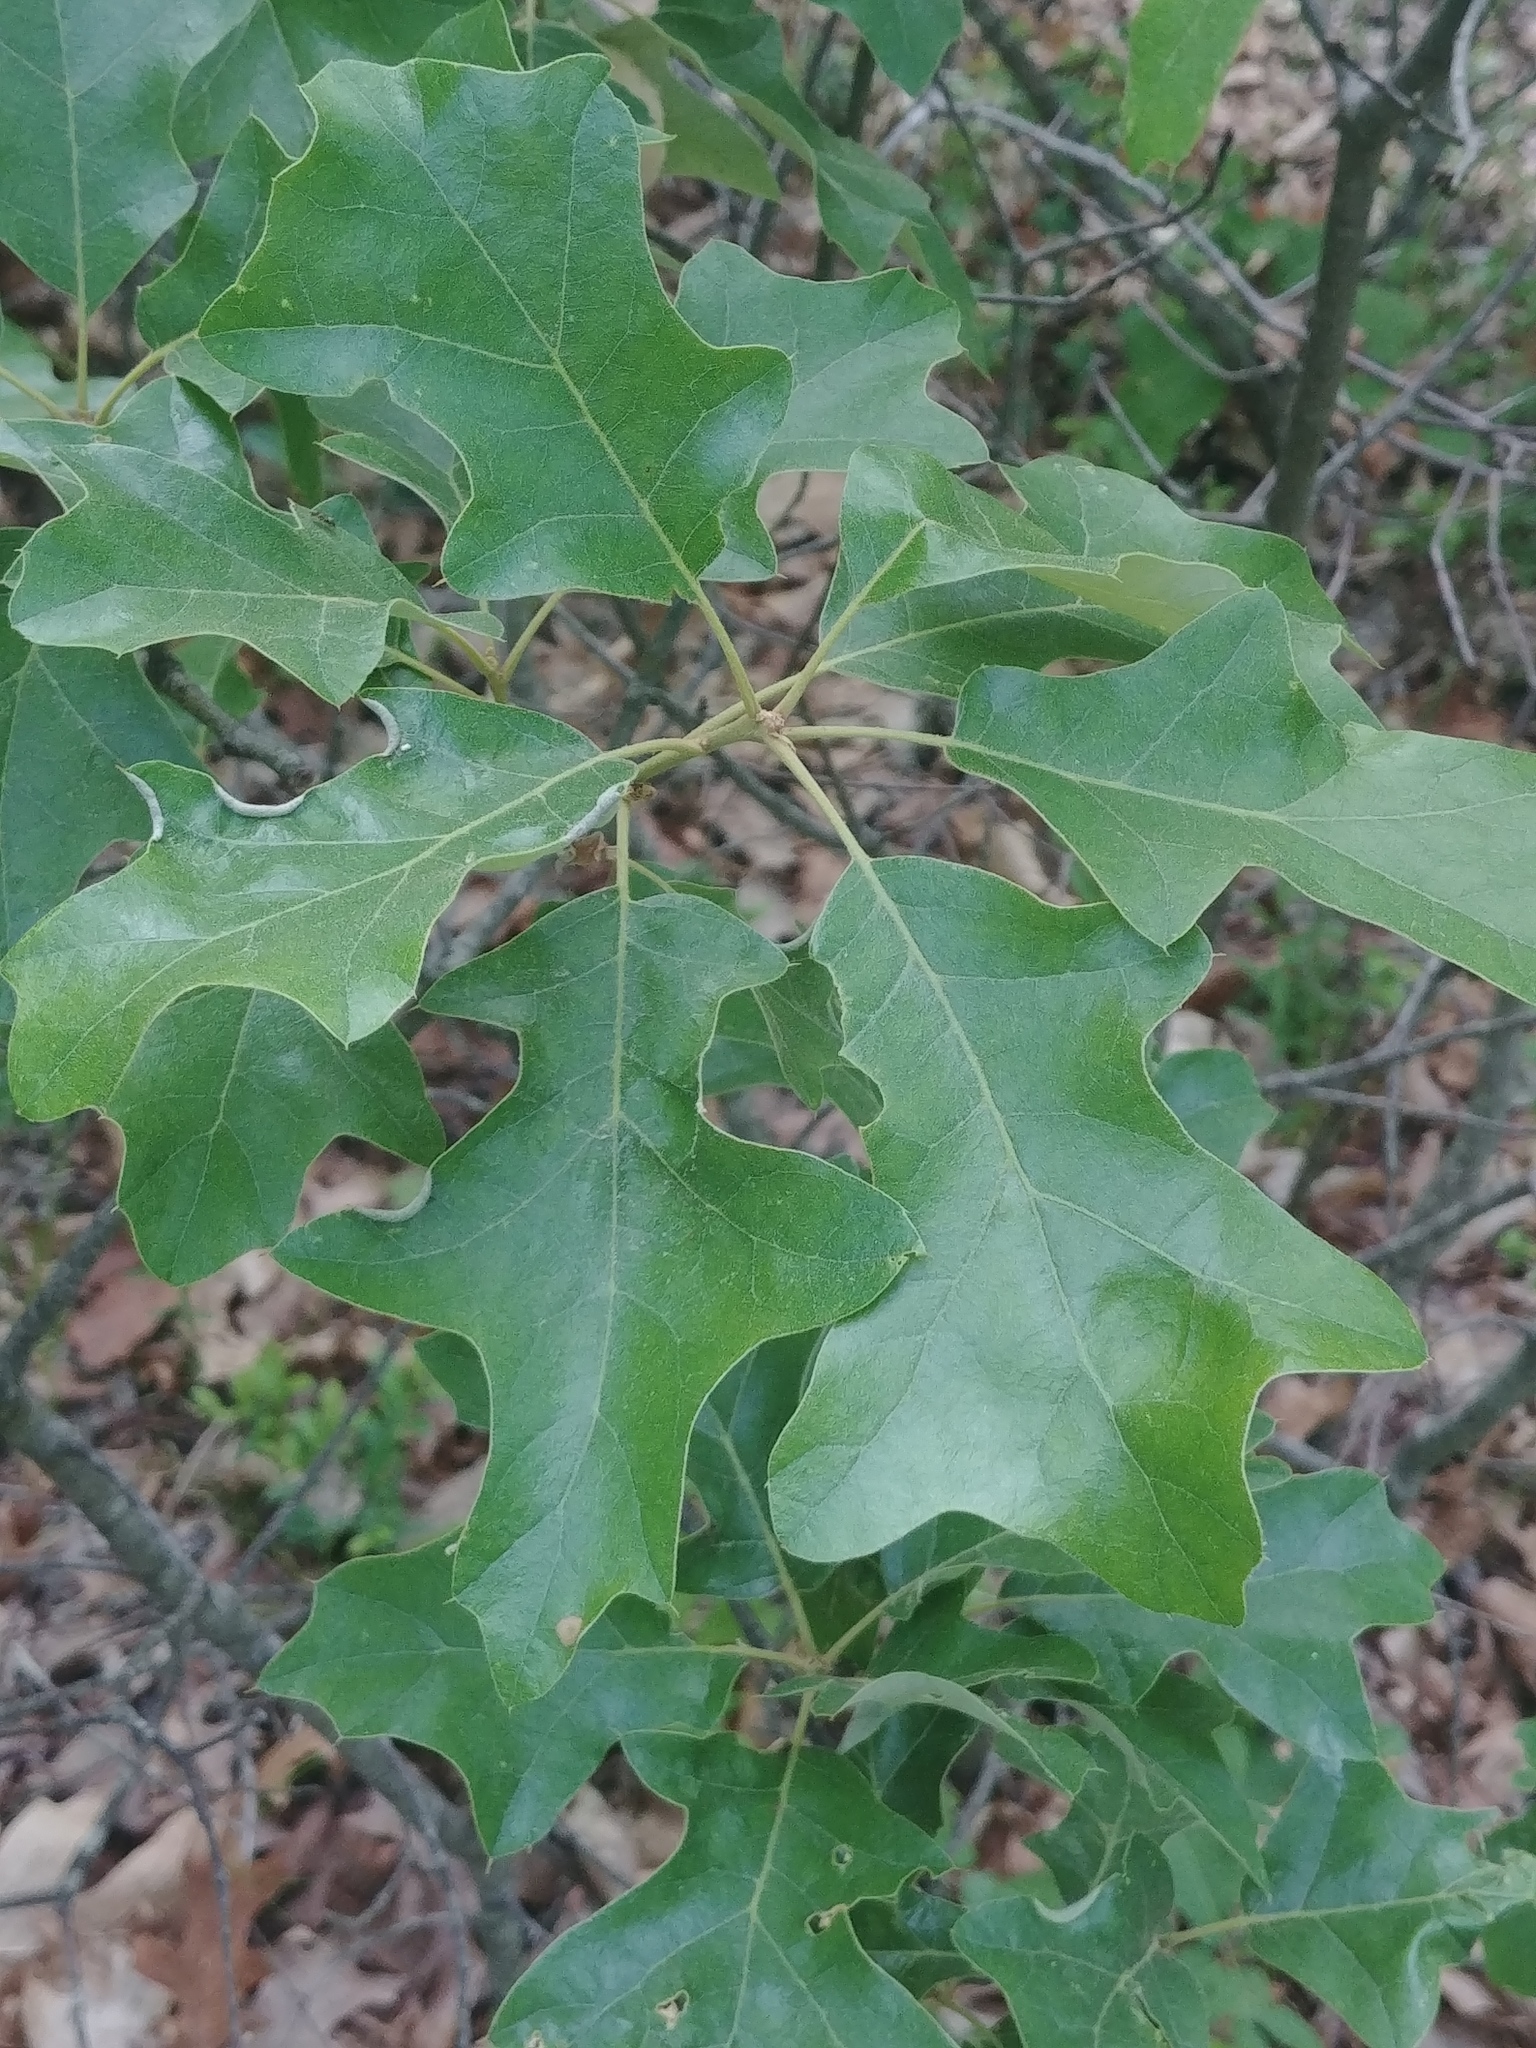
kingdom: Plantae
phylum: Tracheophyta
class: Magnoliopsida
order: Fagales
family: Fagaceae
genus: Quercus
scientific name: Quercus ilicifolia
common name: Bear oak
